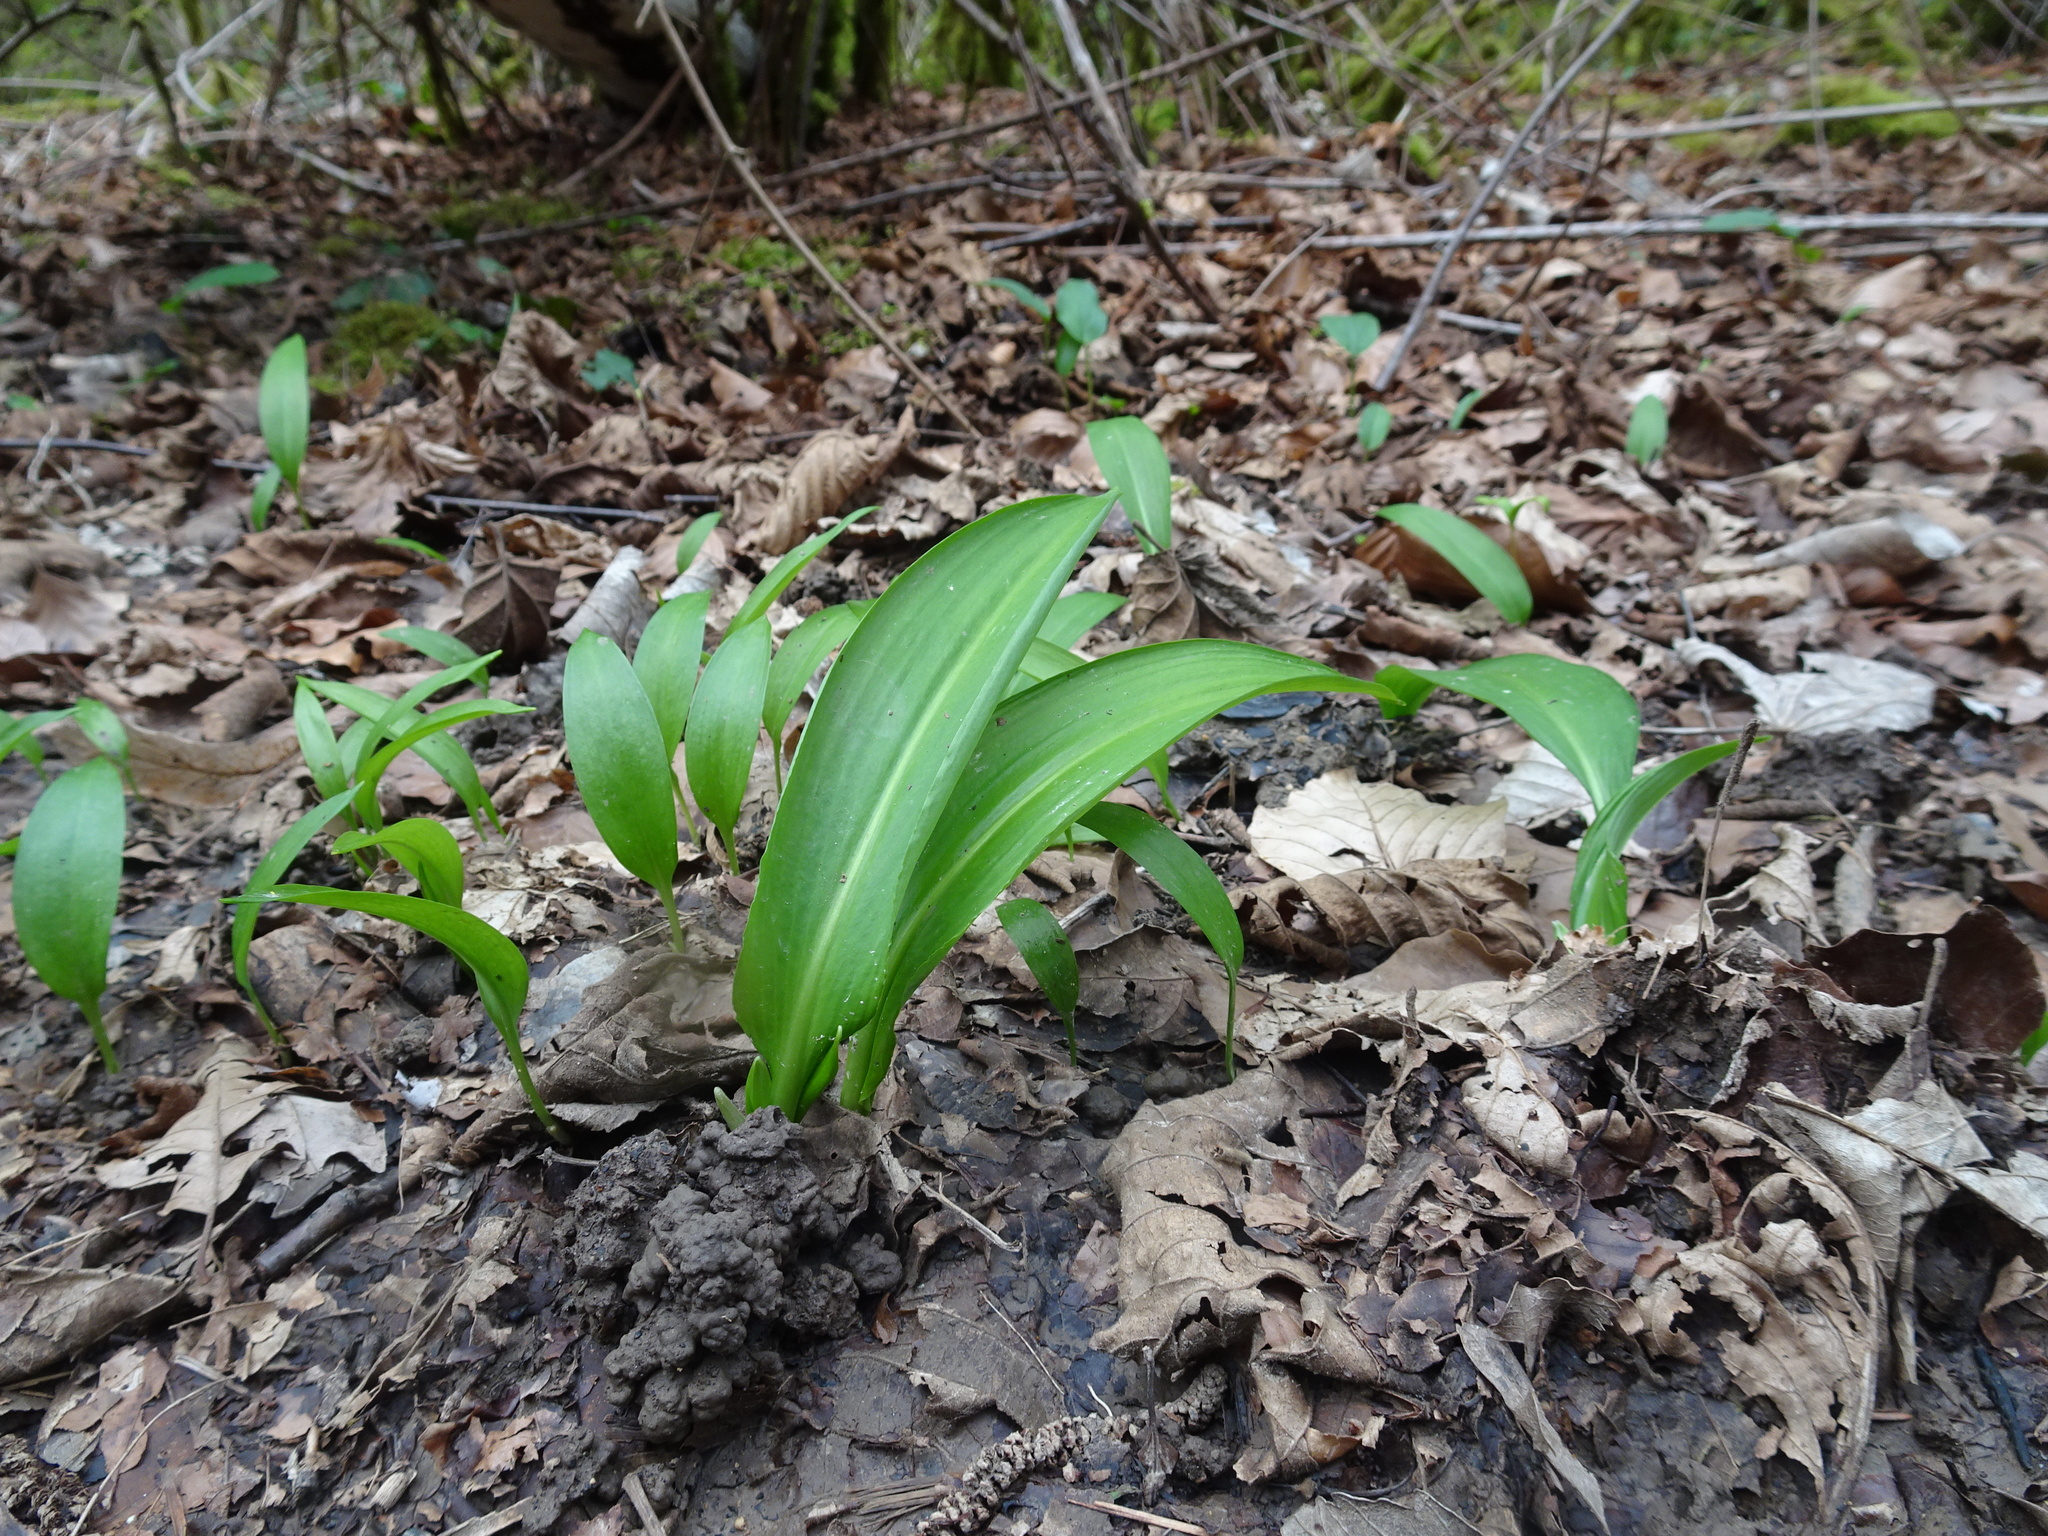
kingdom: Plantae
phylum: Tracheophyta
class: Liliopsida
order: Asparagales
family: Amaryllidaceae
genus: Allium
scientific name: Allium ursinum
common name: Ramsons
